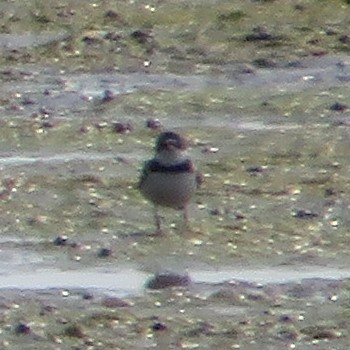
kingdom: Animalia
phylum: Chordata
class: Aves
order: Charadriiformes
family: Charadriidae
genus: Charadrius
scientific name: Charadrius semipalmatus
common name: Semipalmated plover
